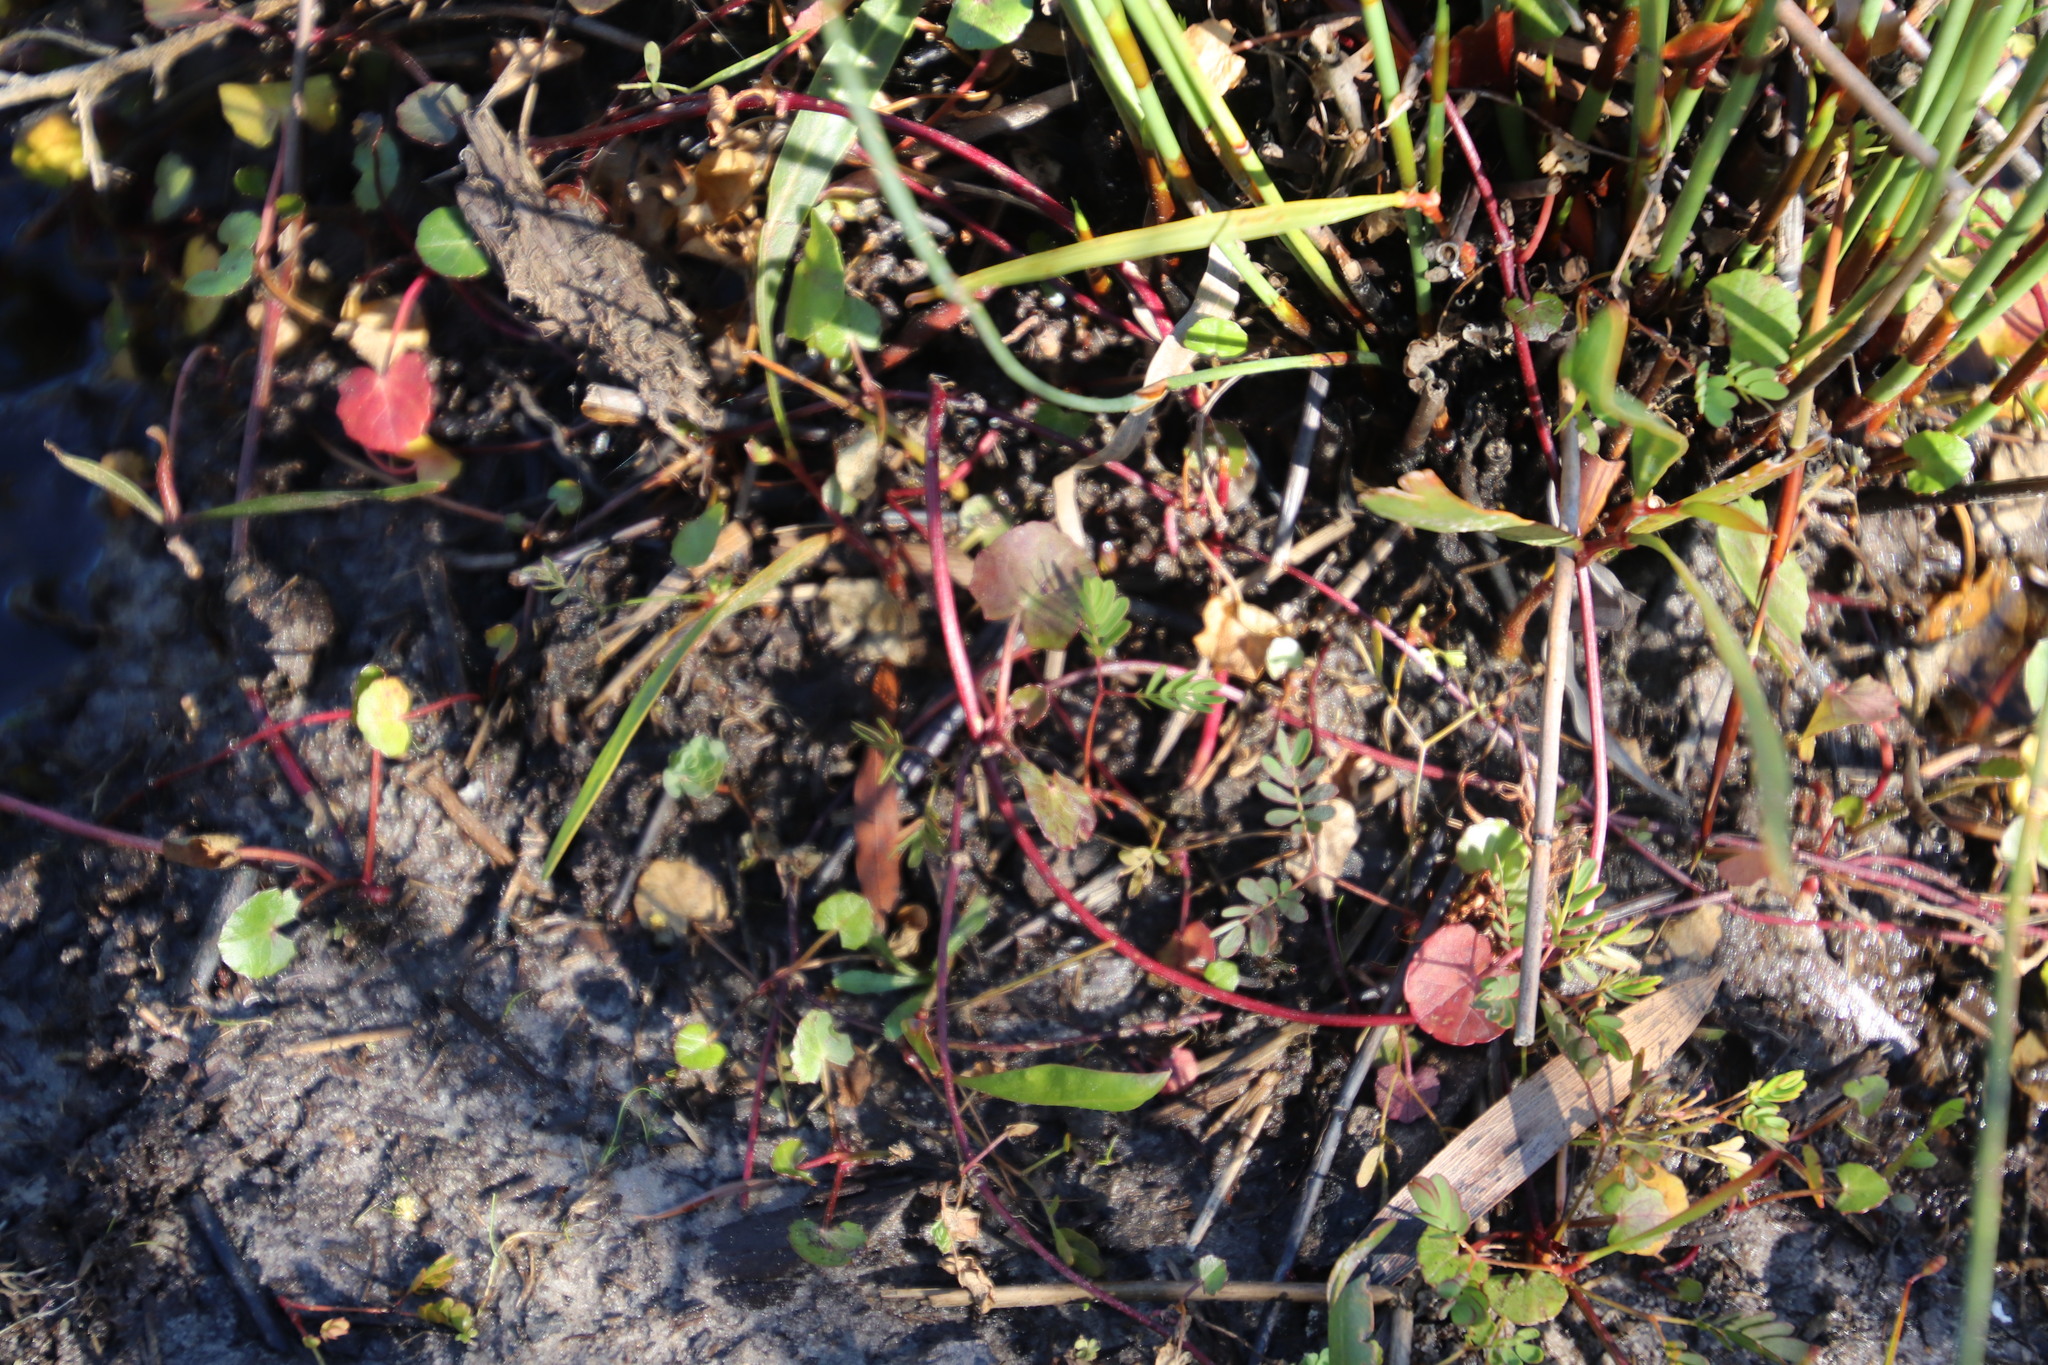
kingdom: Plantae
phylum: Tracheophyta
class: Magnoliopsida
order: Apiales
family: Apiaceae
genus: Centella
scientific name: Centella asiatica
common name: Spadeleaf
